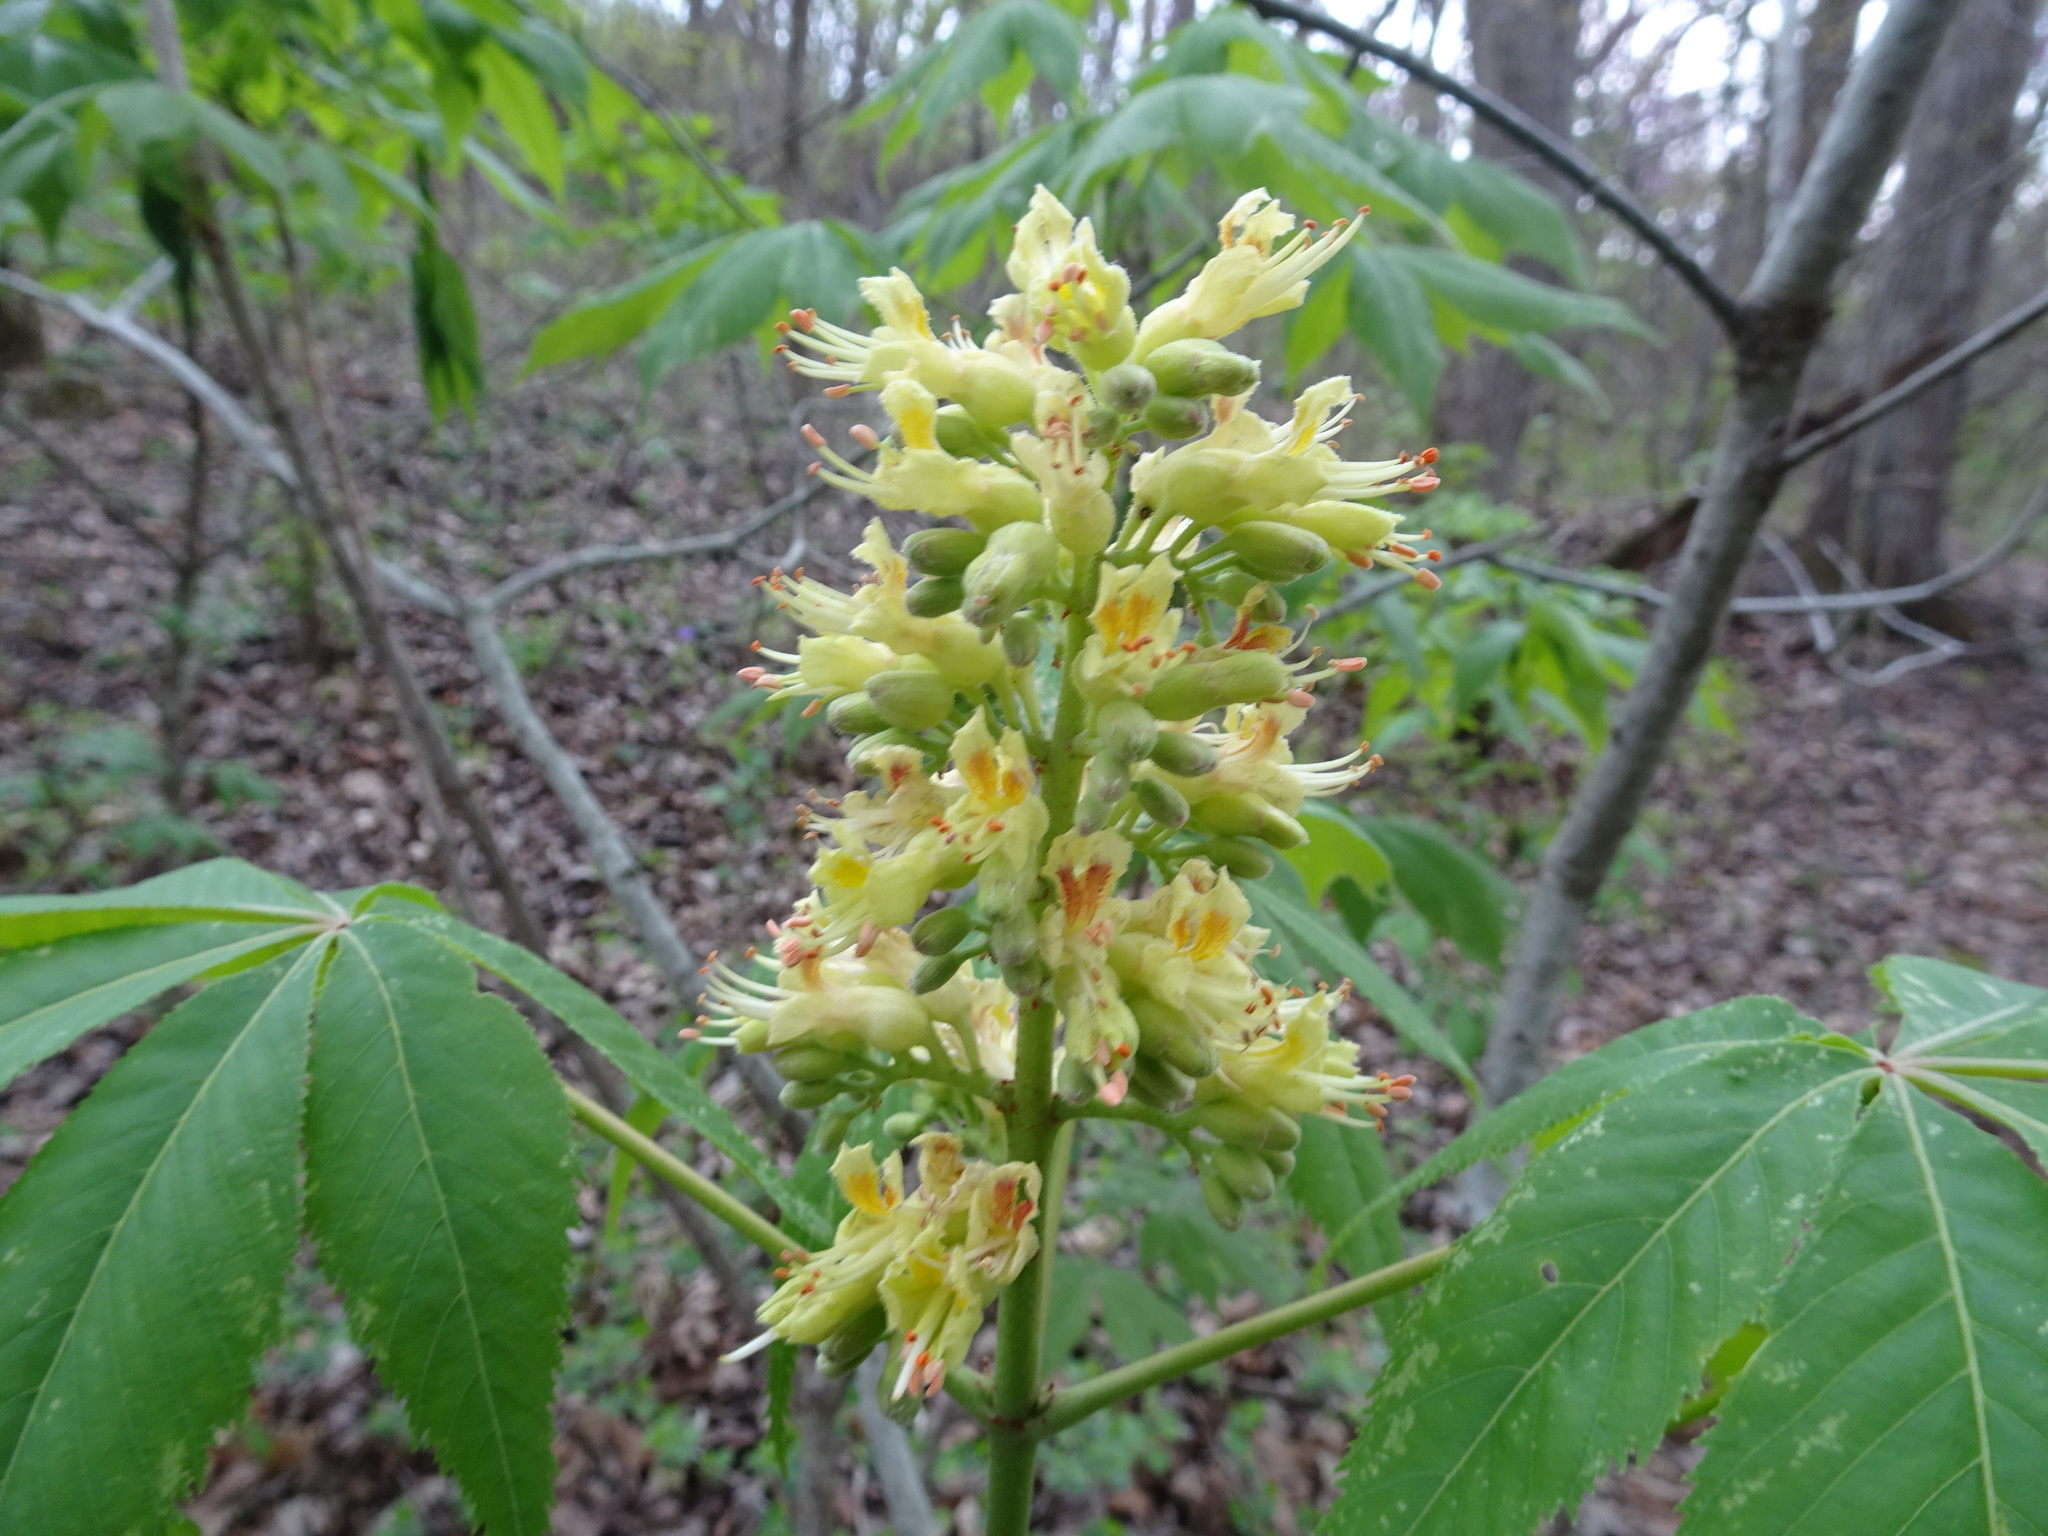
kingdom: Plantae
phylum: Tracheophyta
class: Magnoliopsida
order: Sapindales
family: Sapindaceae
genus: Aesculus
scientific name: Aesculus glabra
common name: Ohio buckeye
